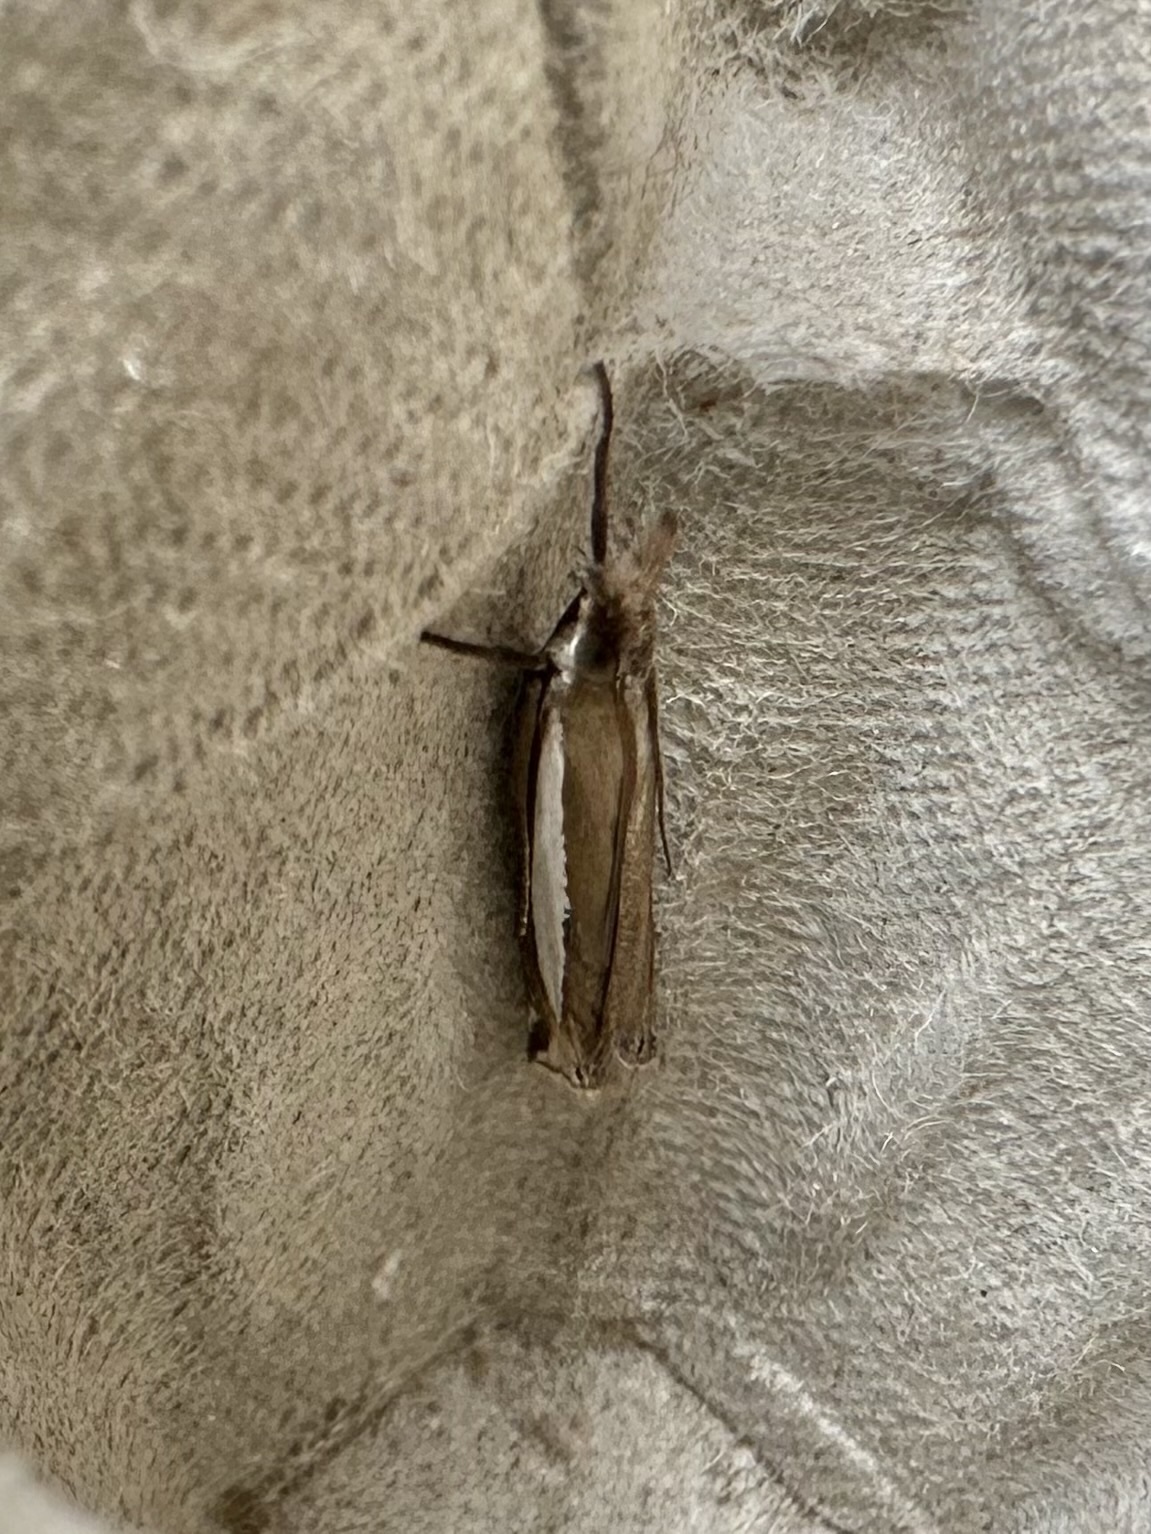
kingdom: Animalia
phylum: Arthropoda
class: Insecta
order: Lepidoptera
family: Crambidae
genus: Crambus
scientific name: Crambus leachellus
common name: Leach's grass-veneer
